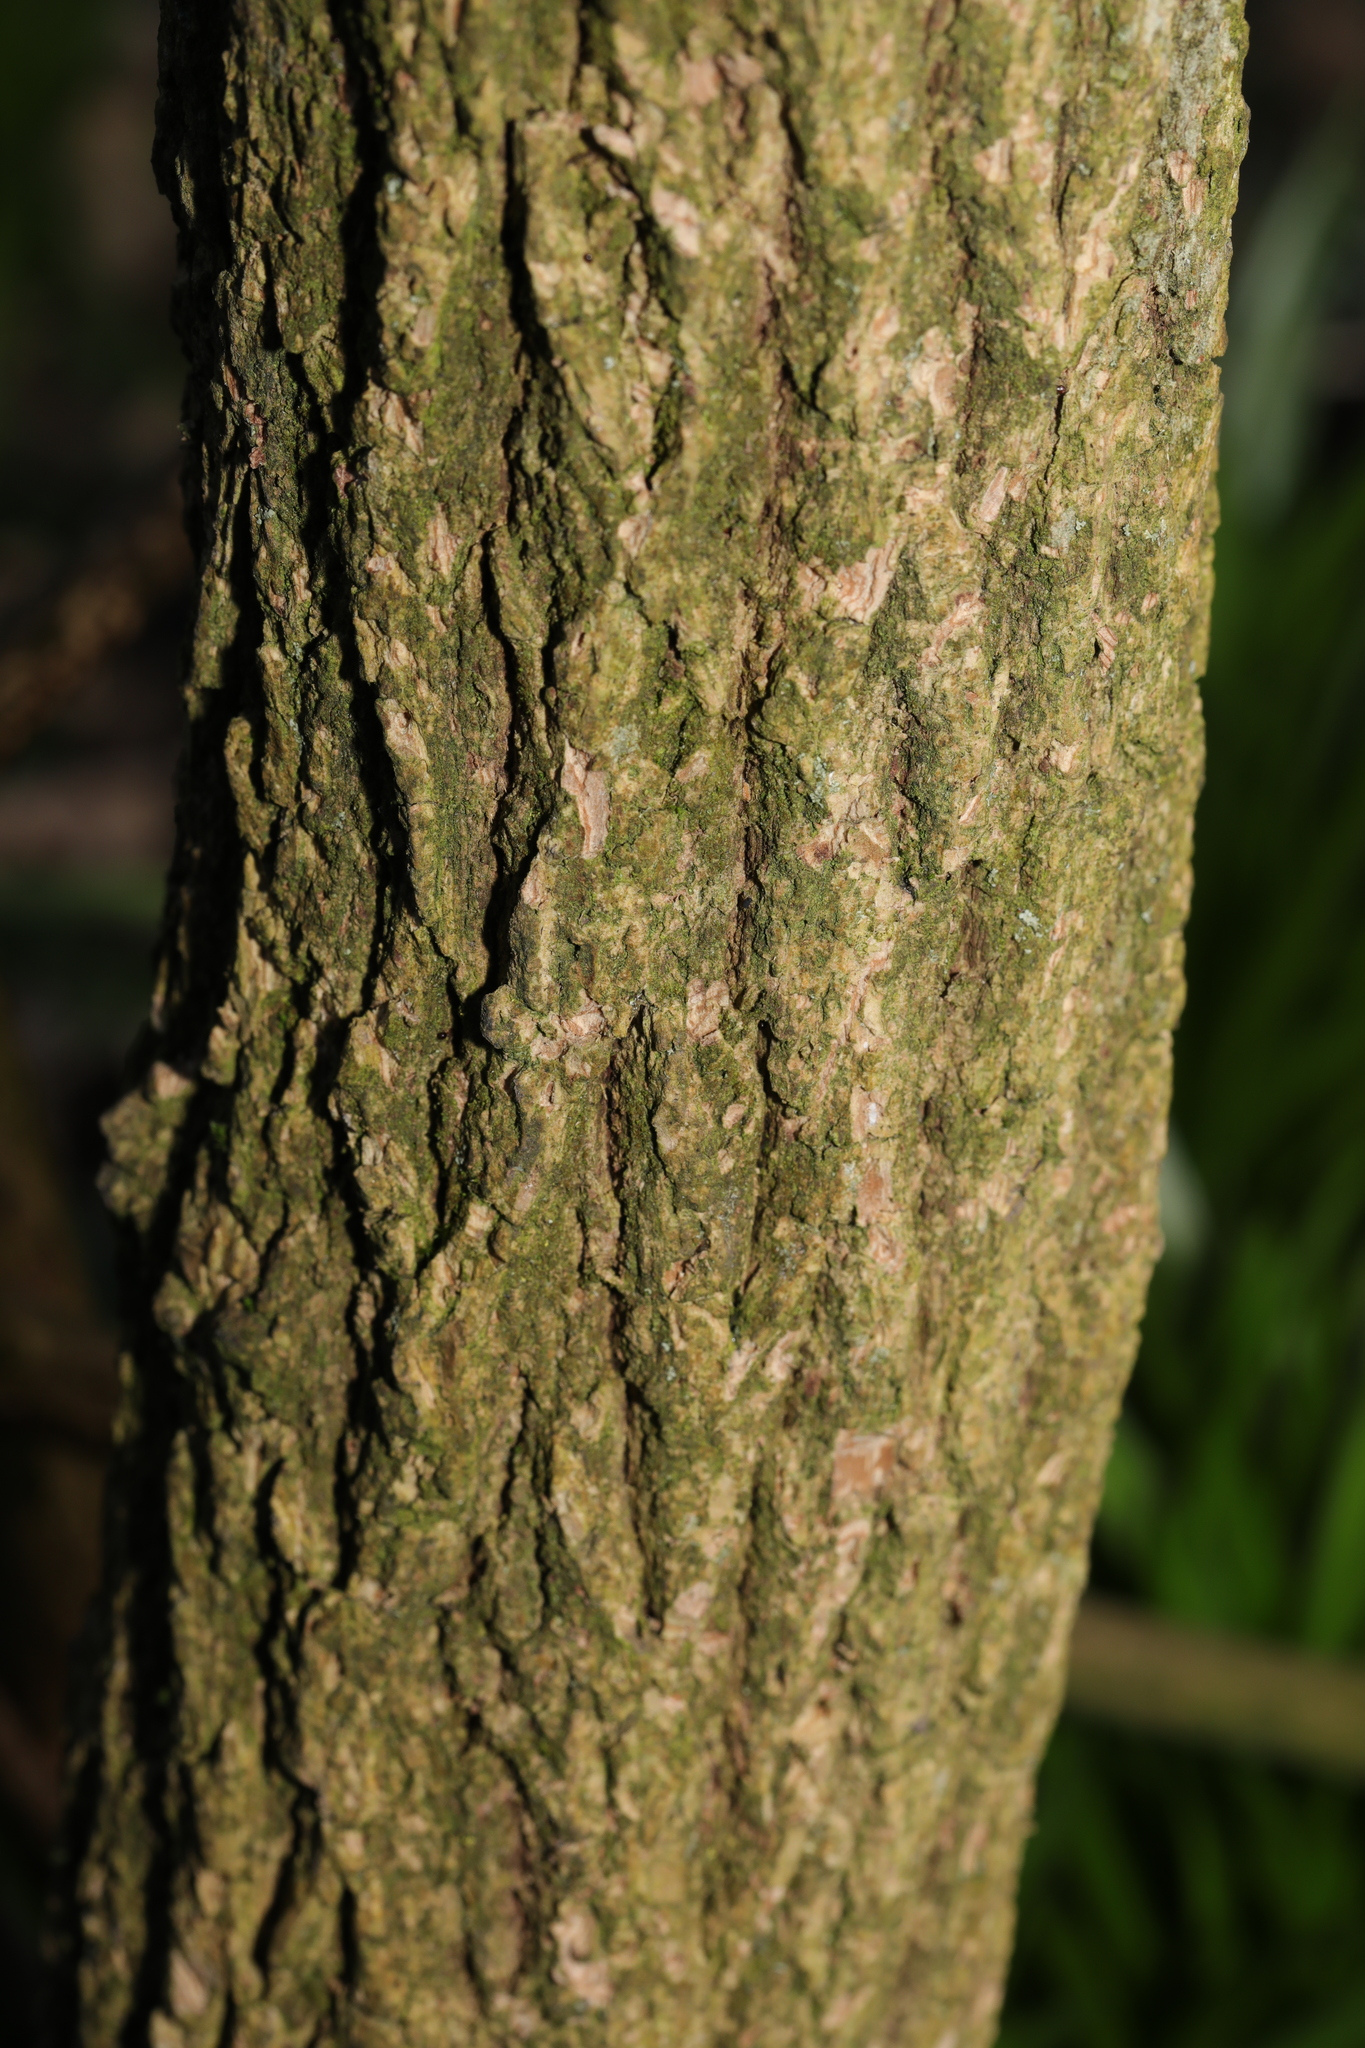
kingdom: Plantae
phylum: Tracheophyta
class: Magnoliopsida
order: Dipsacales
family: Viburnaceae
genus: Sambucus
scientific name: Sambucus nigra
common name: Elder
